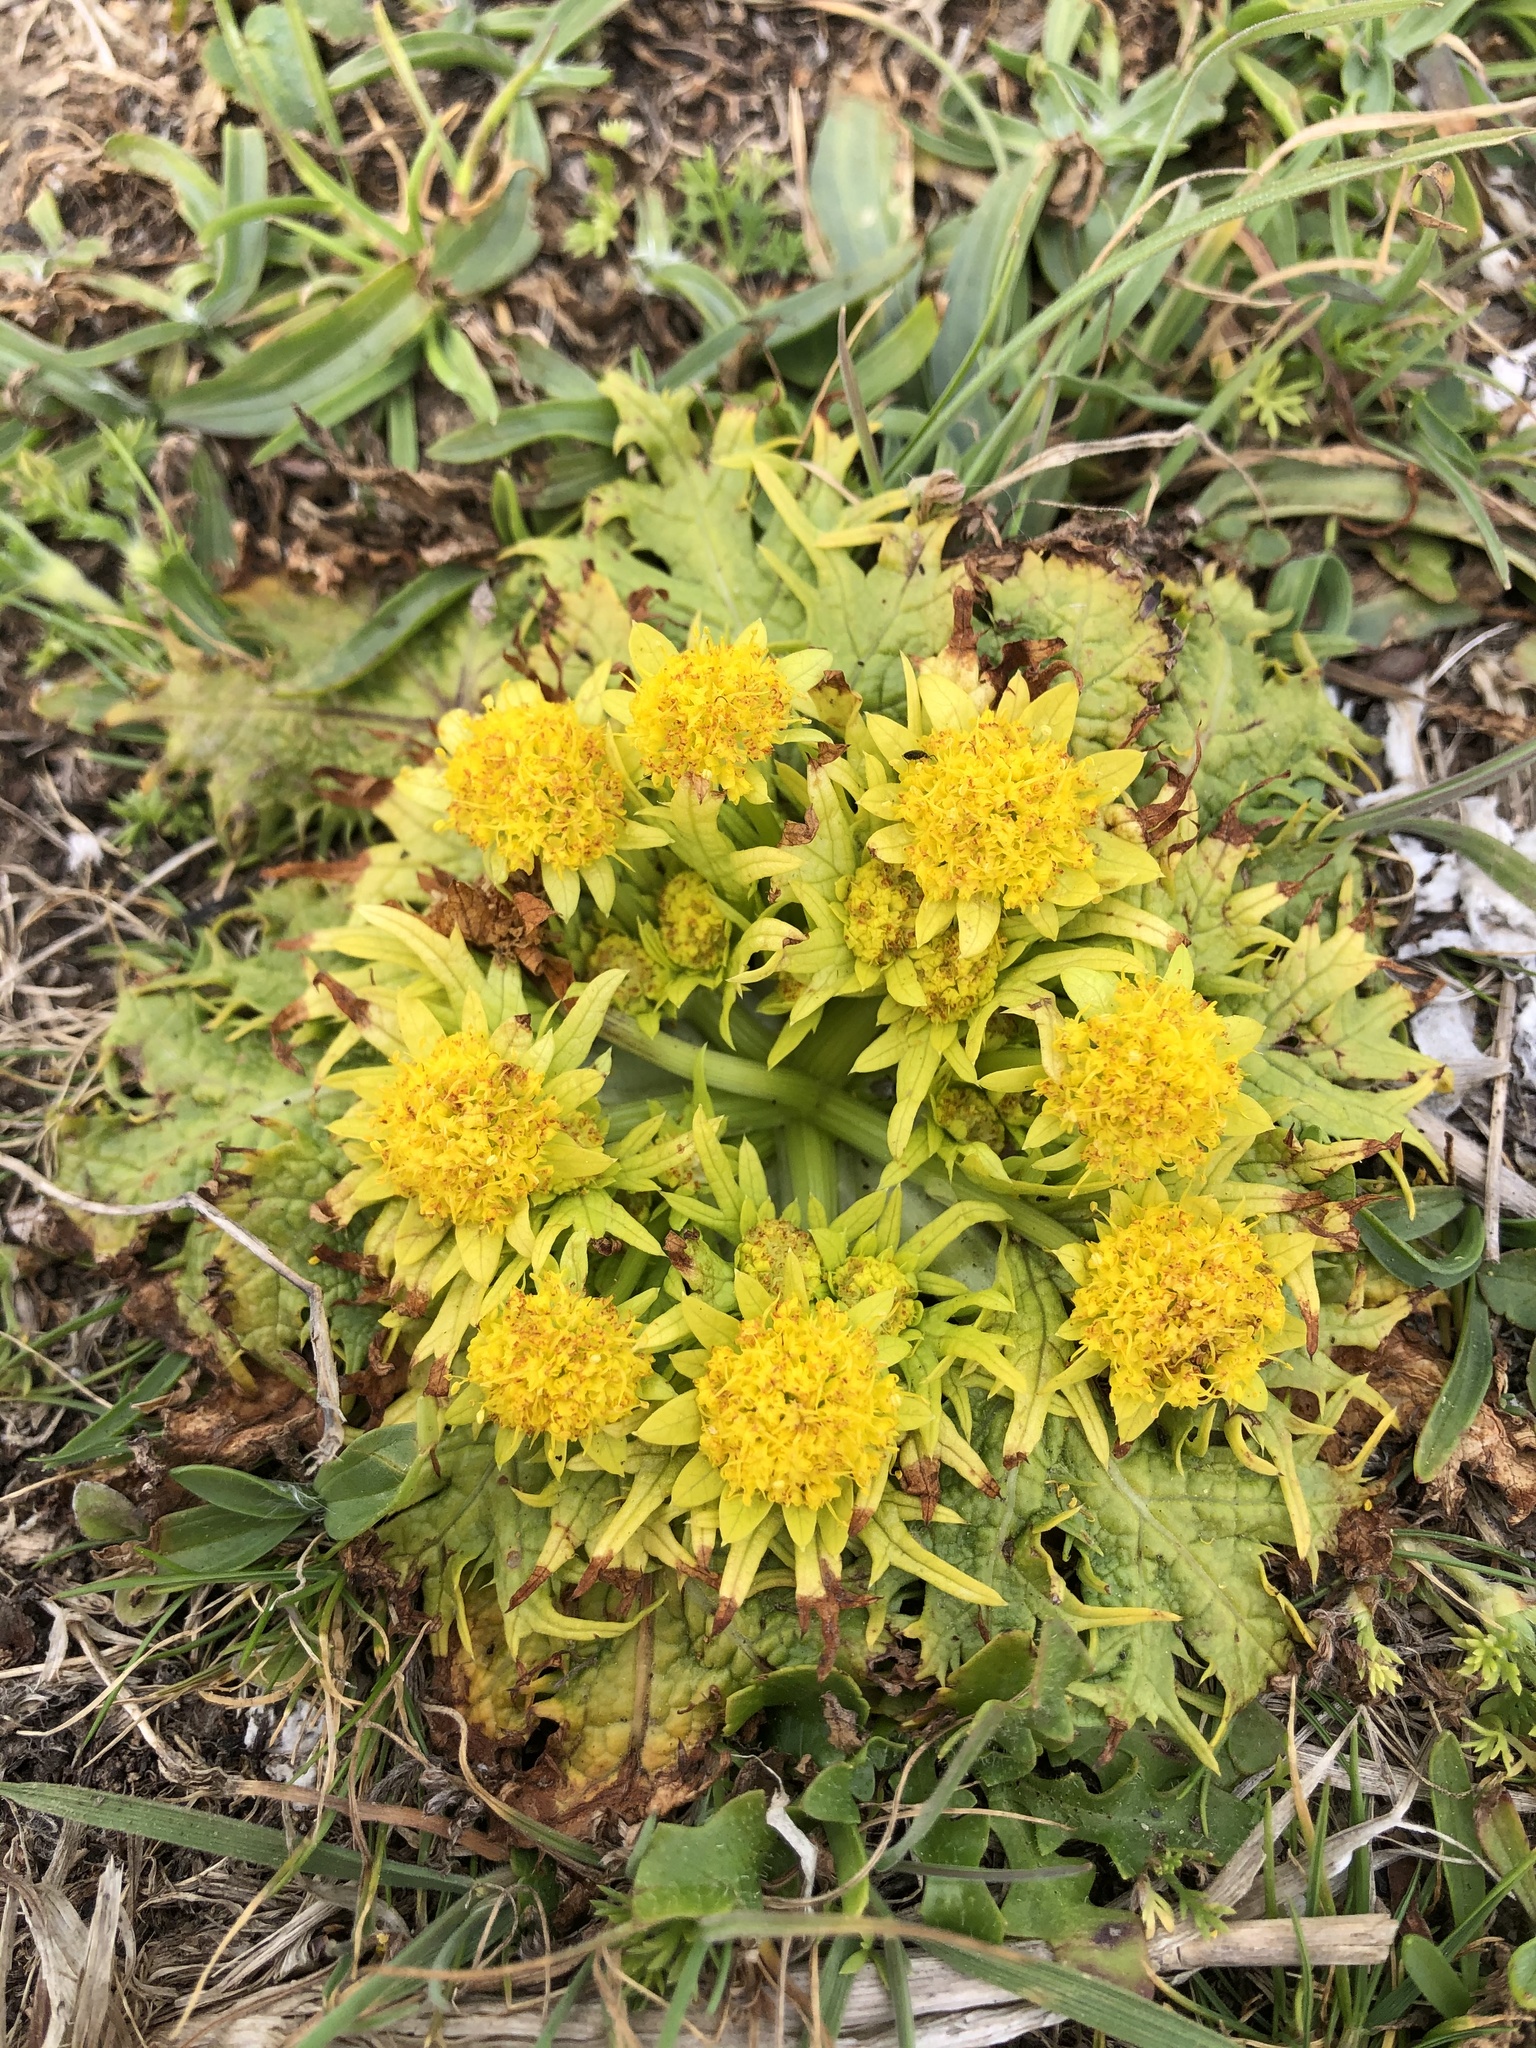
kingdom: Plantae
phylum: Tracheophyta
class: Magnoliopsida
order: Apiales
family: Apiaceae
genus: Sanicula
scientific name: Sanicula arctopoides
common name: Footsteps-of-spring
